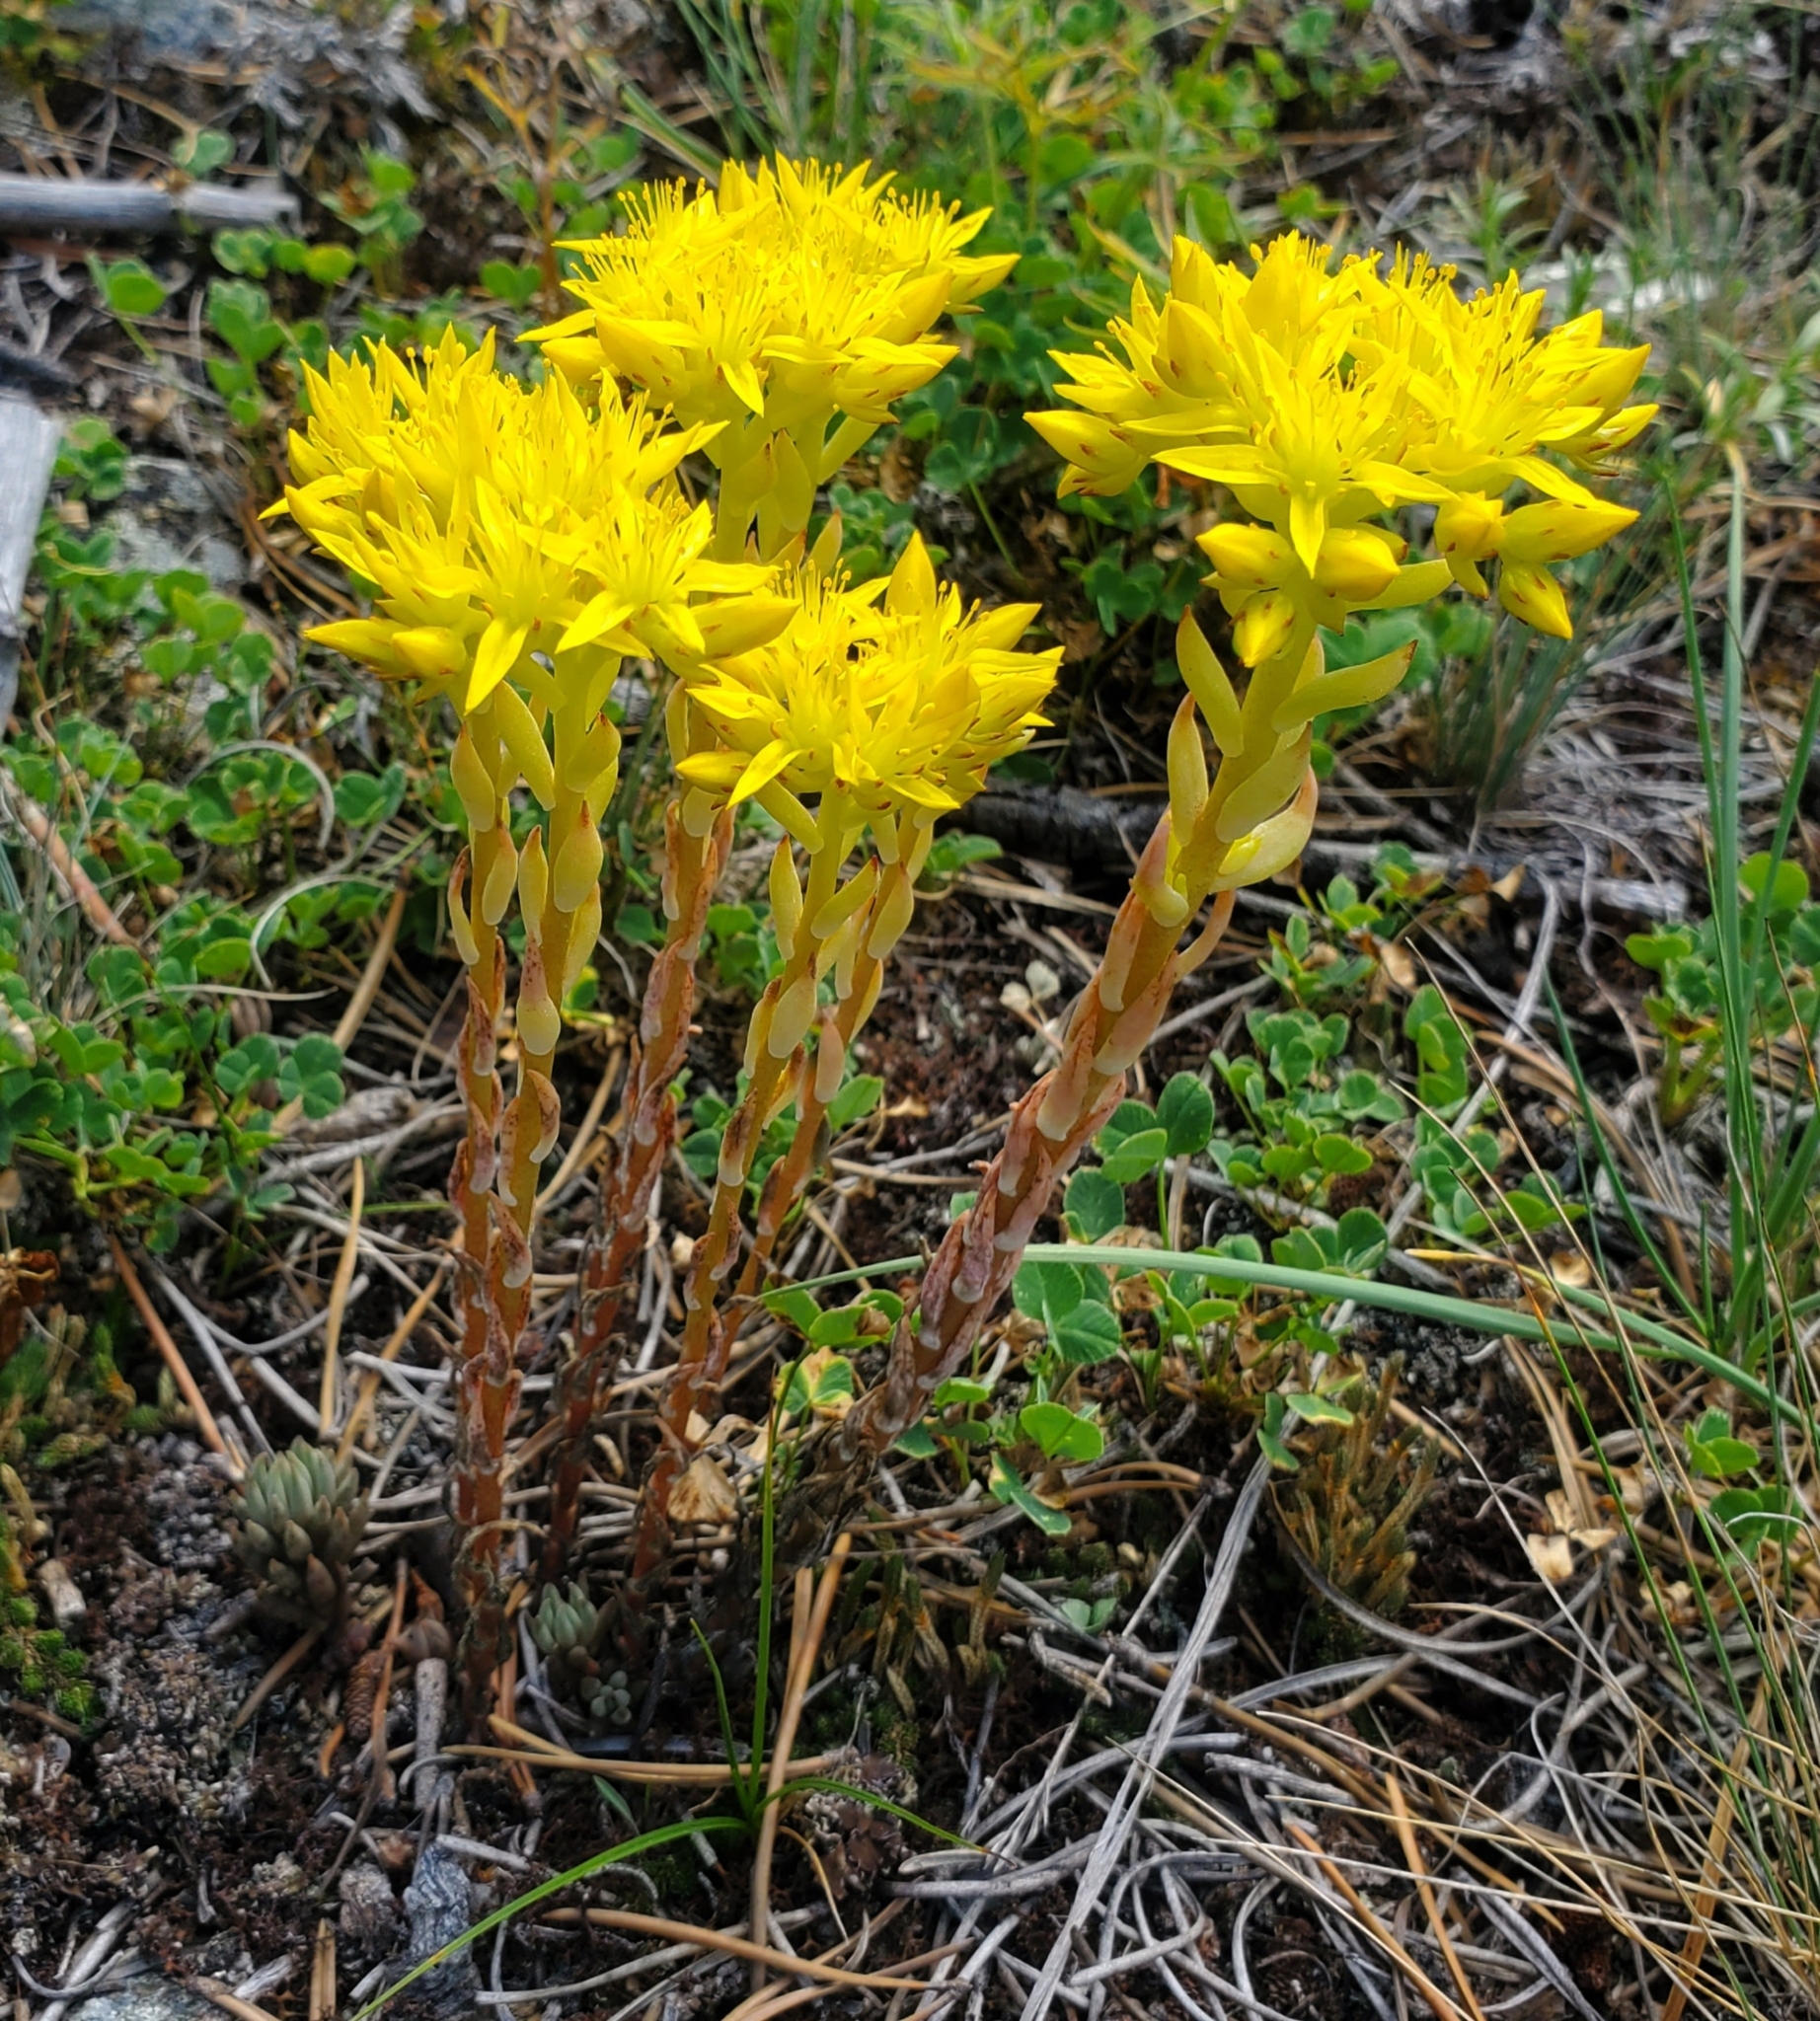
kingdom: Plantae
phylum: Tracheophyta
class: Magnoliopsida
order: Saxifragales
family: Crassulaceae
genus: Sedum
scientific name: Sedum lanceolatum
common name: Common stonecrop
